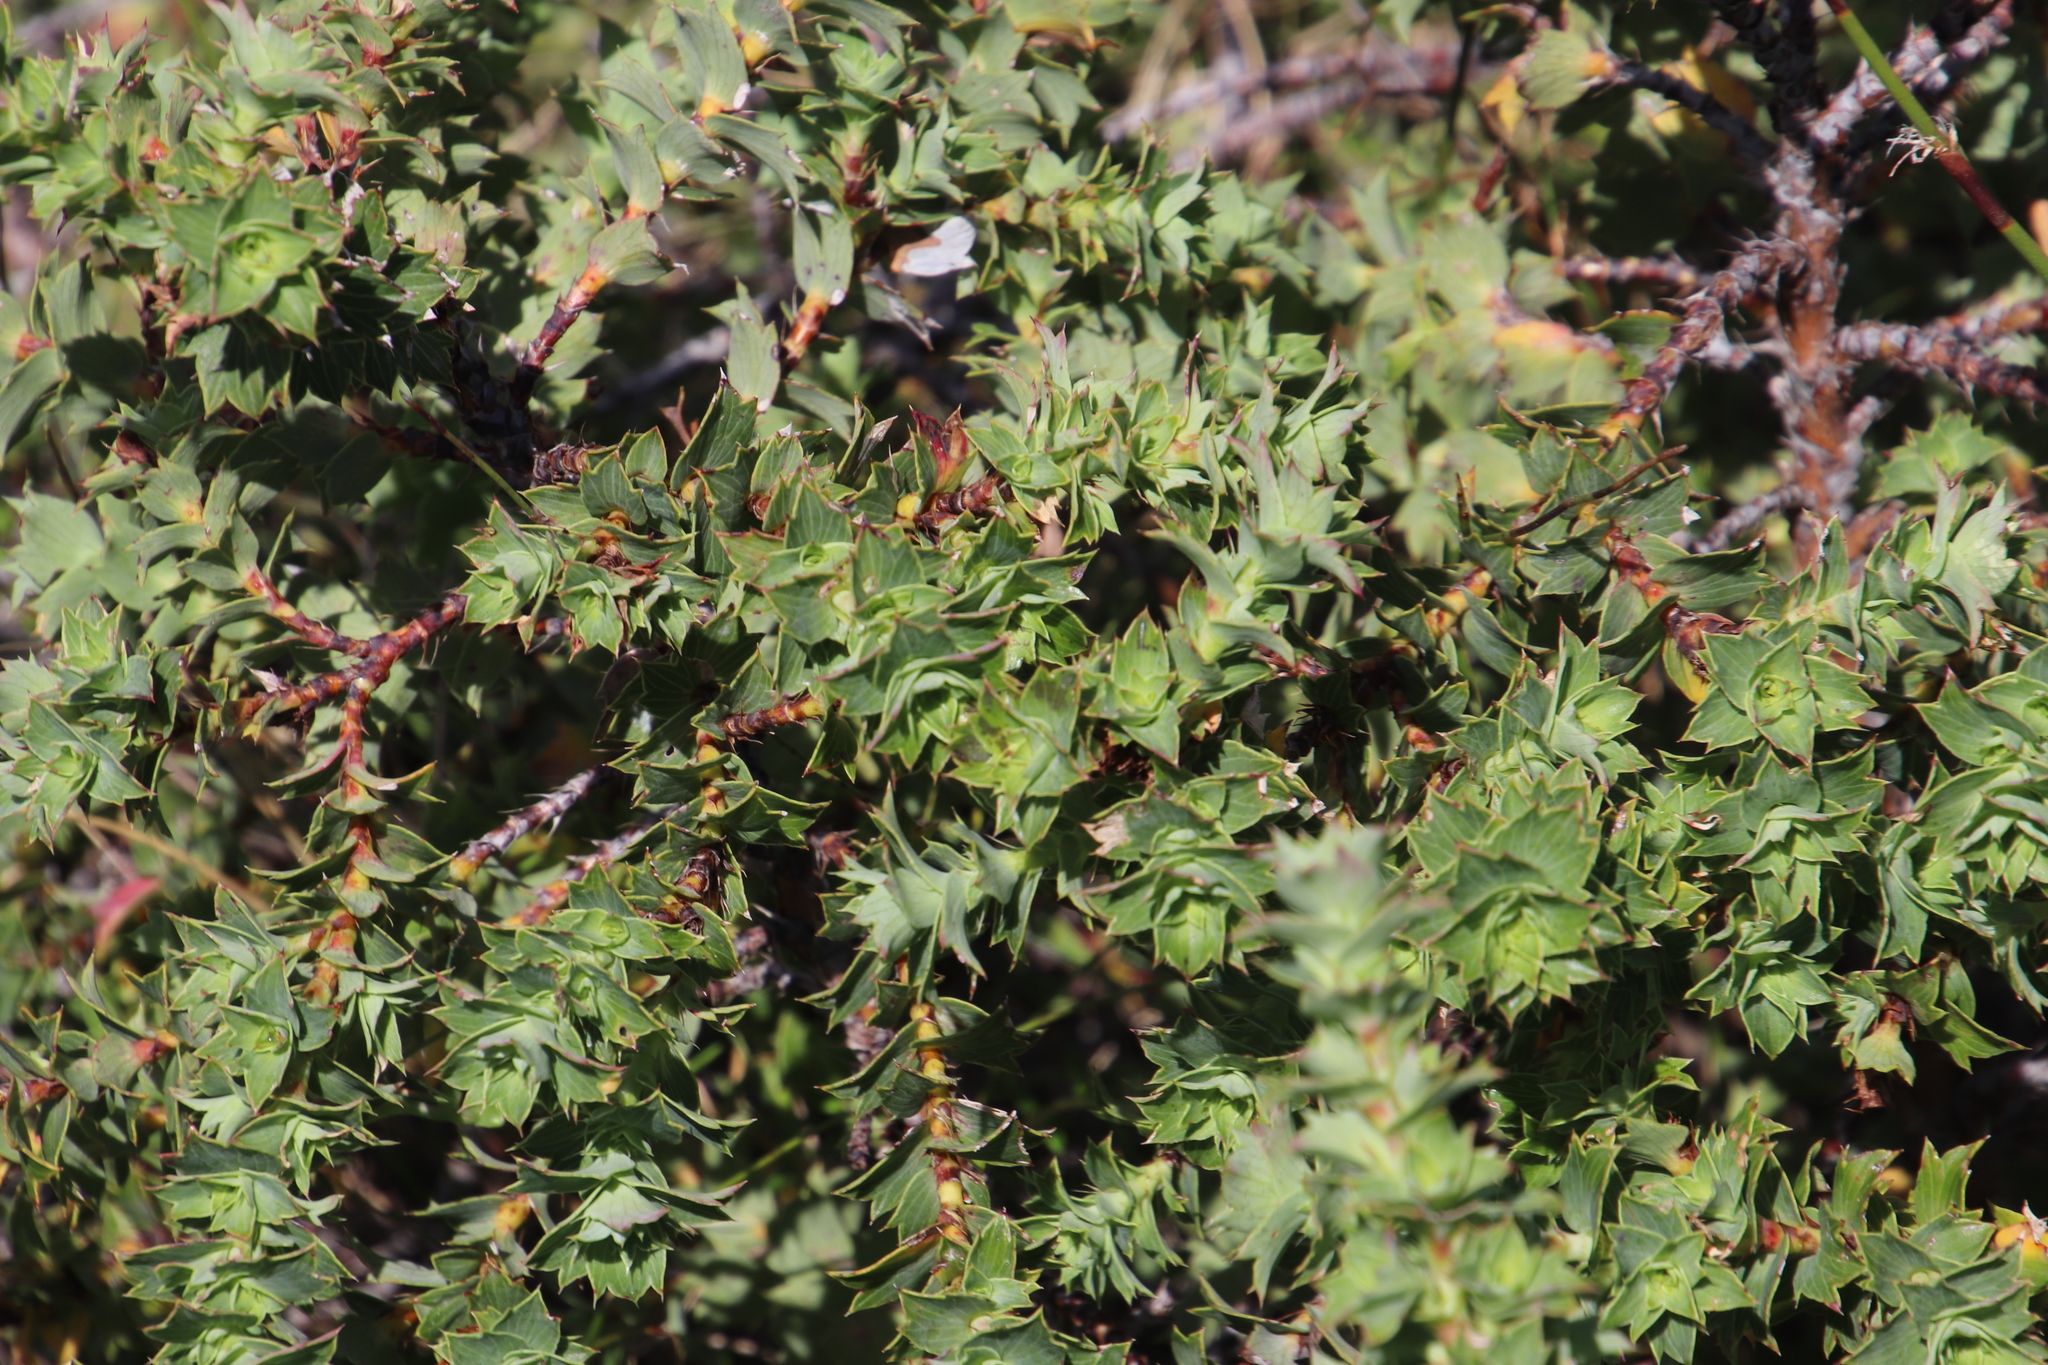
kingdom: Plantae
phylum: Tracheophyta
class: Magnoliopsida
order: Rosales
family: Rosaceae
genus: Cliffortia
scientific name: Cliffortia schlechteri
